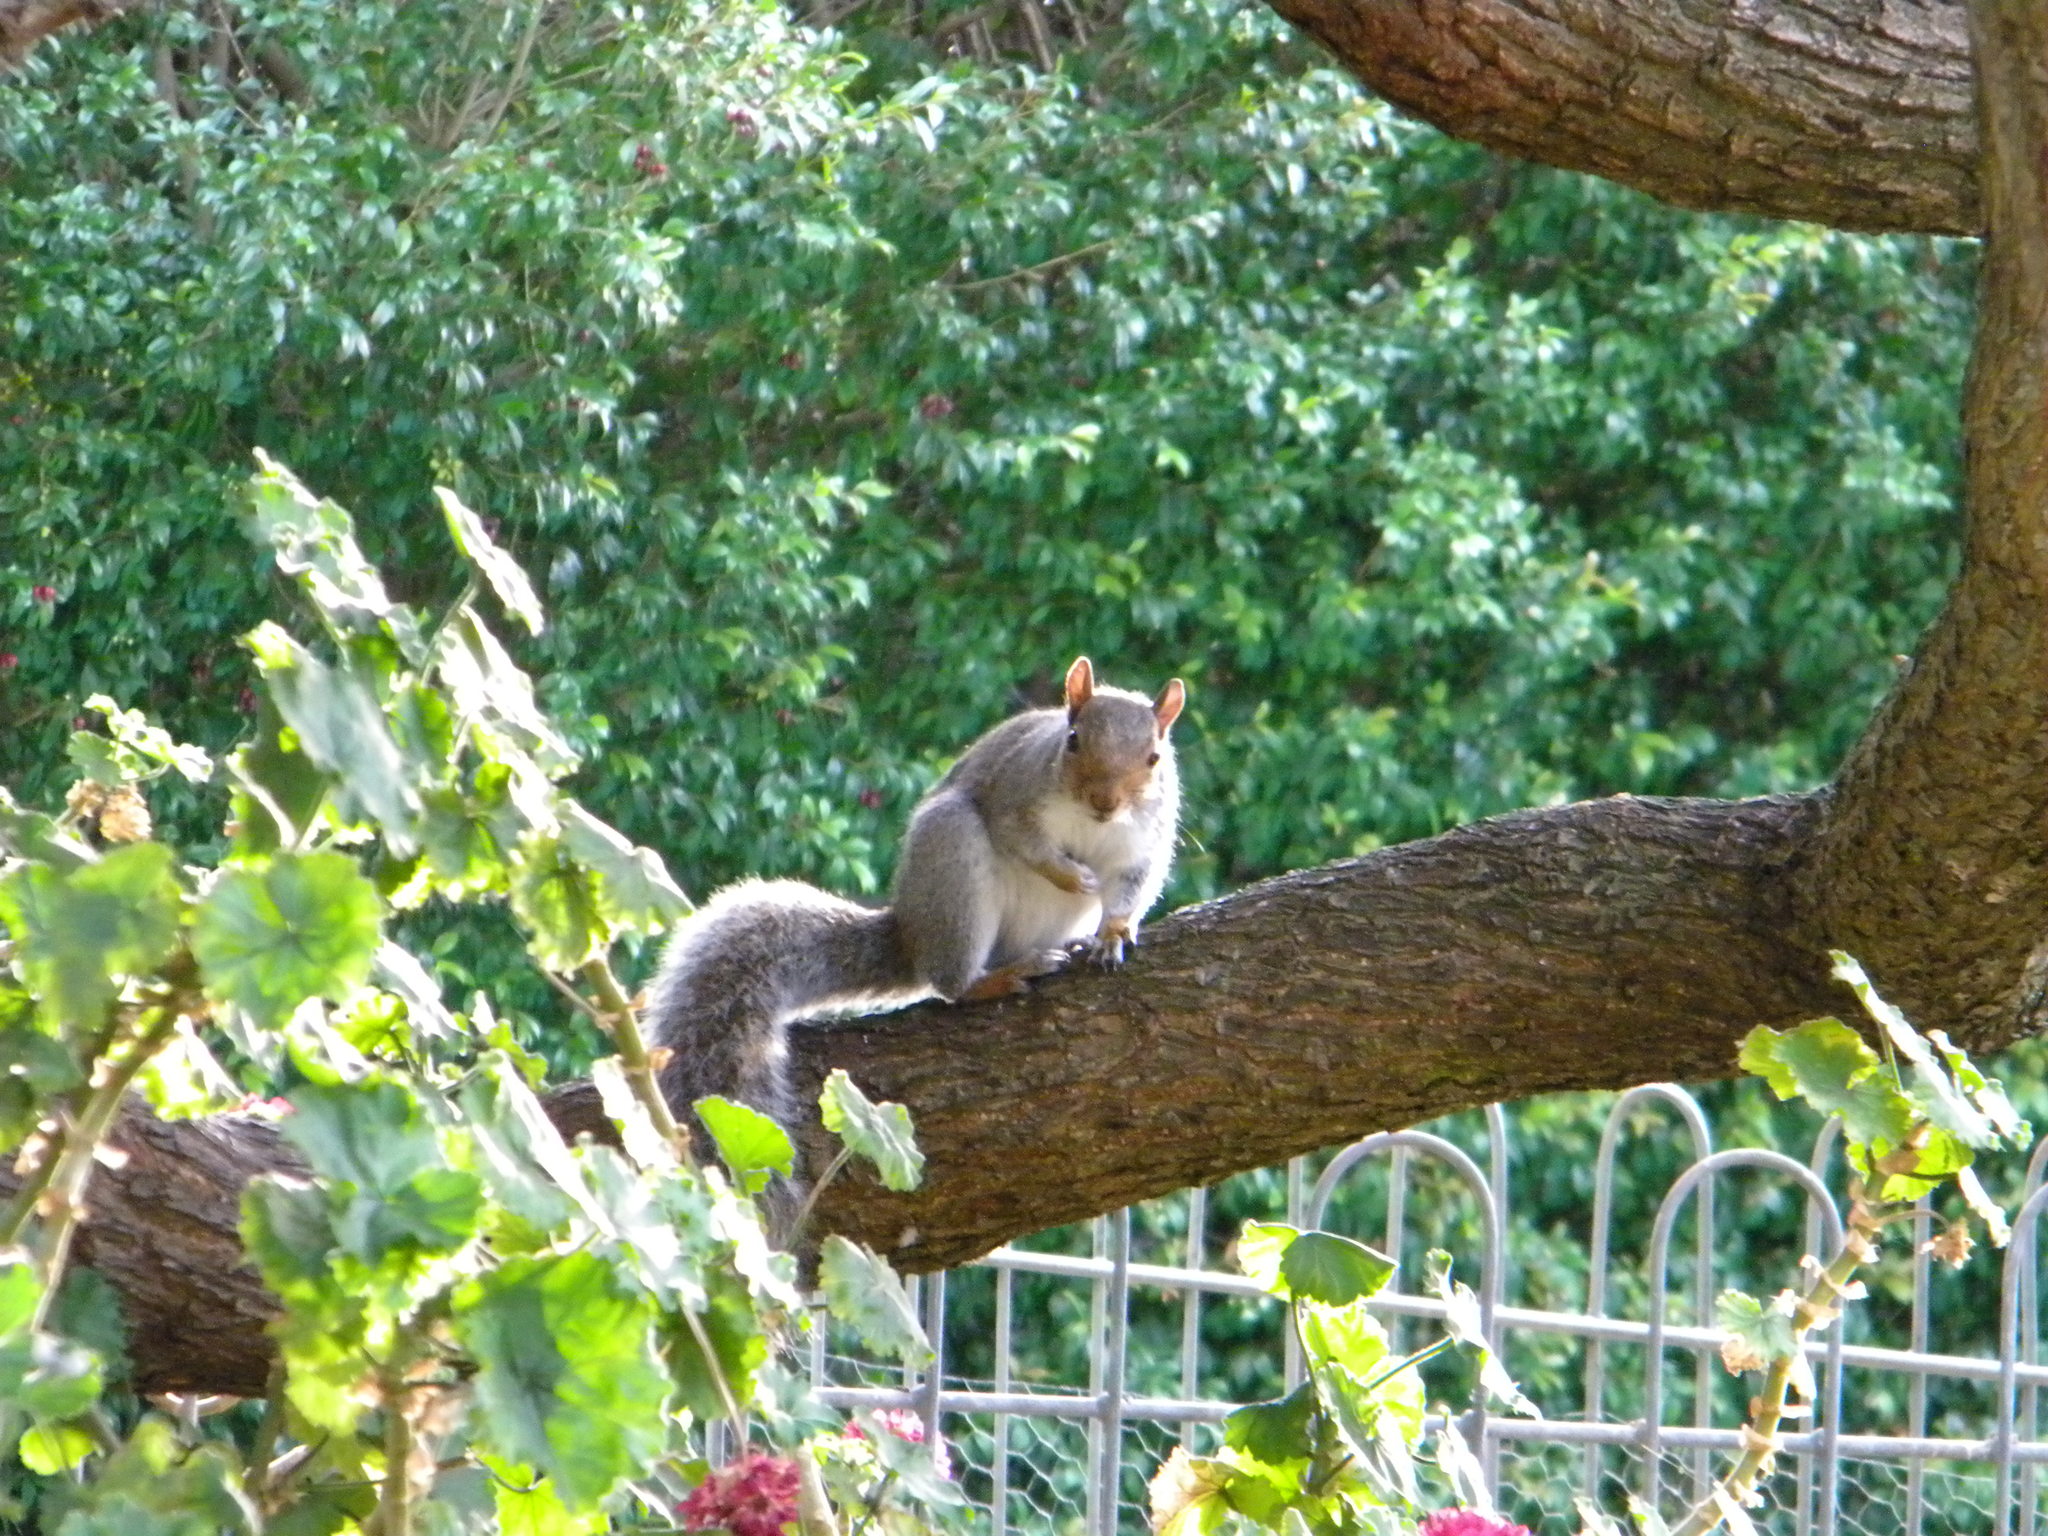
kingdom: Animalia
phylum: Chordata
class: Mammalia
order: Rodentia
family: Sciuridae
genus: Sciurus
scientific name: Sciurus carolinensis
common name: Eastern gray squirrel
